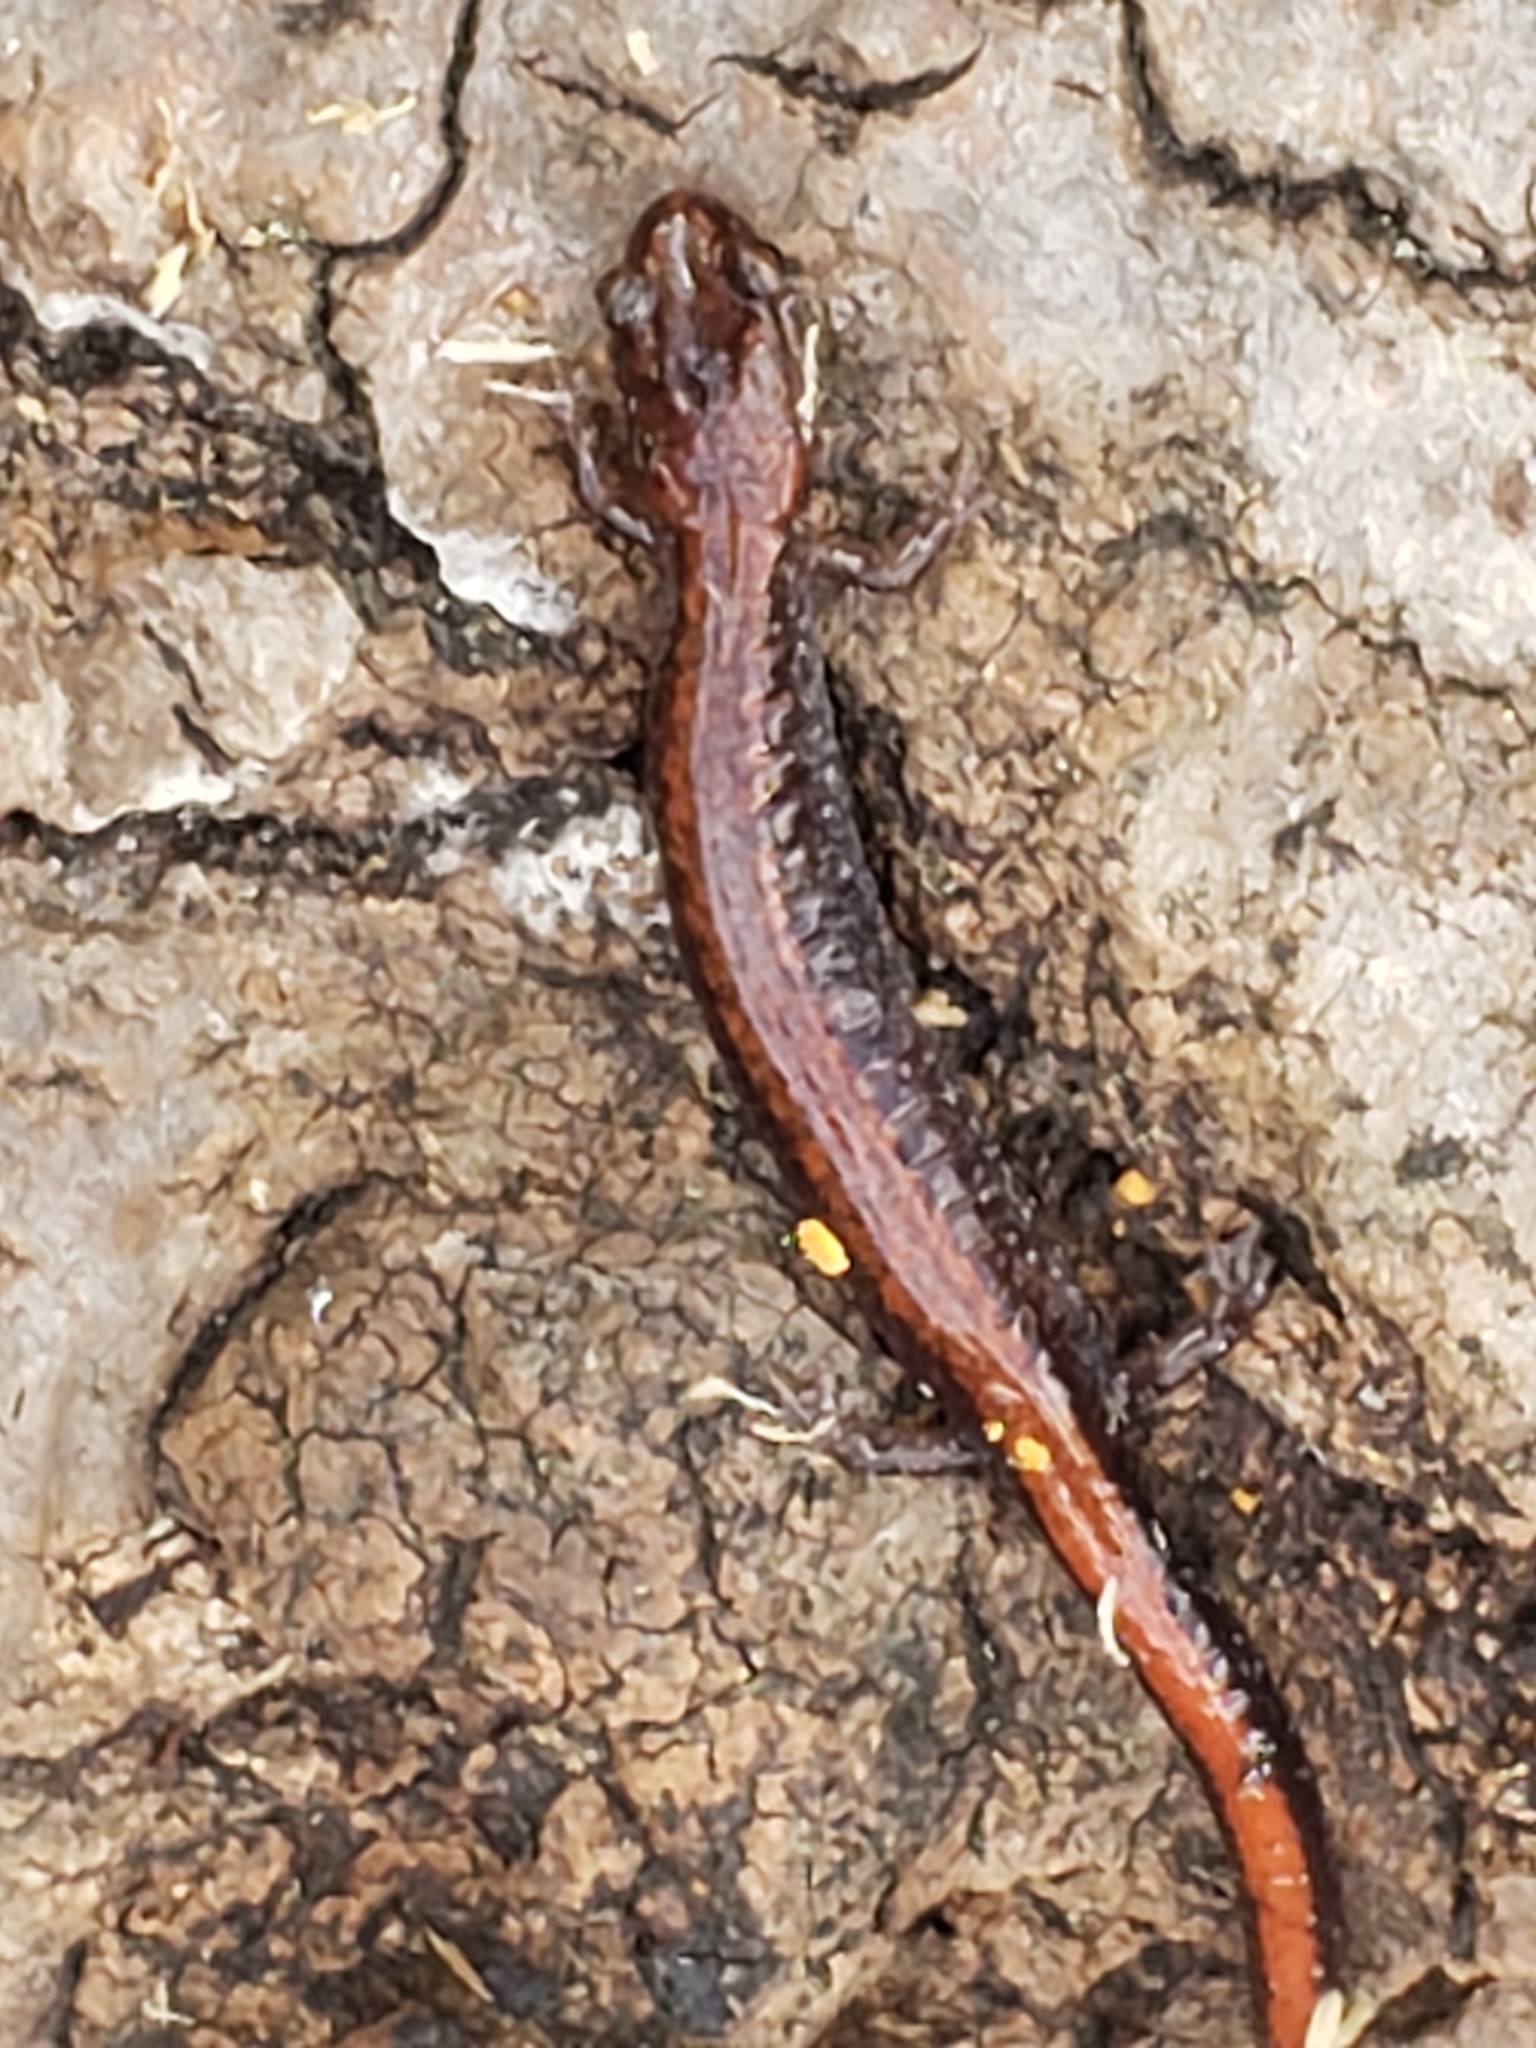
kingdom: Animalia
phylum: Chordata
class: Amphibia
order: Caudata
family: Plethodontidae
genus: Plethodon
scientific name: Plethodon cinereus
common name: Redback salamander
